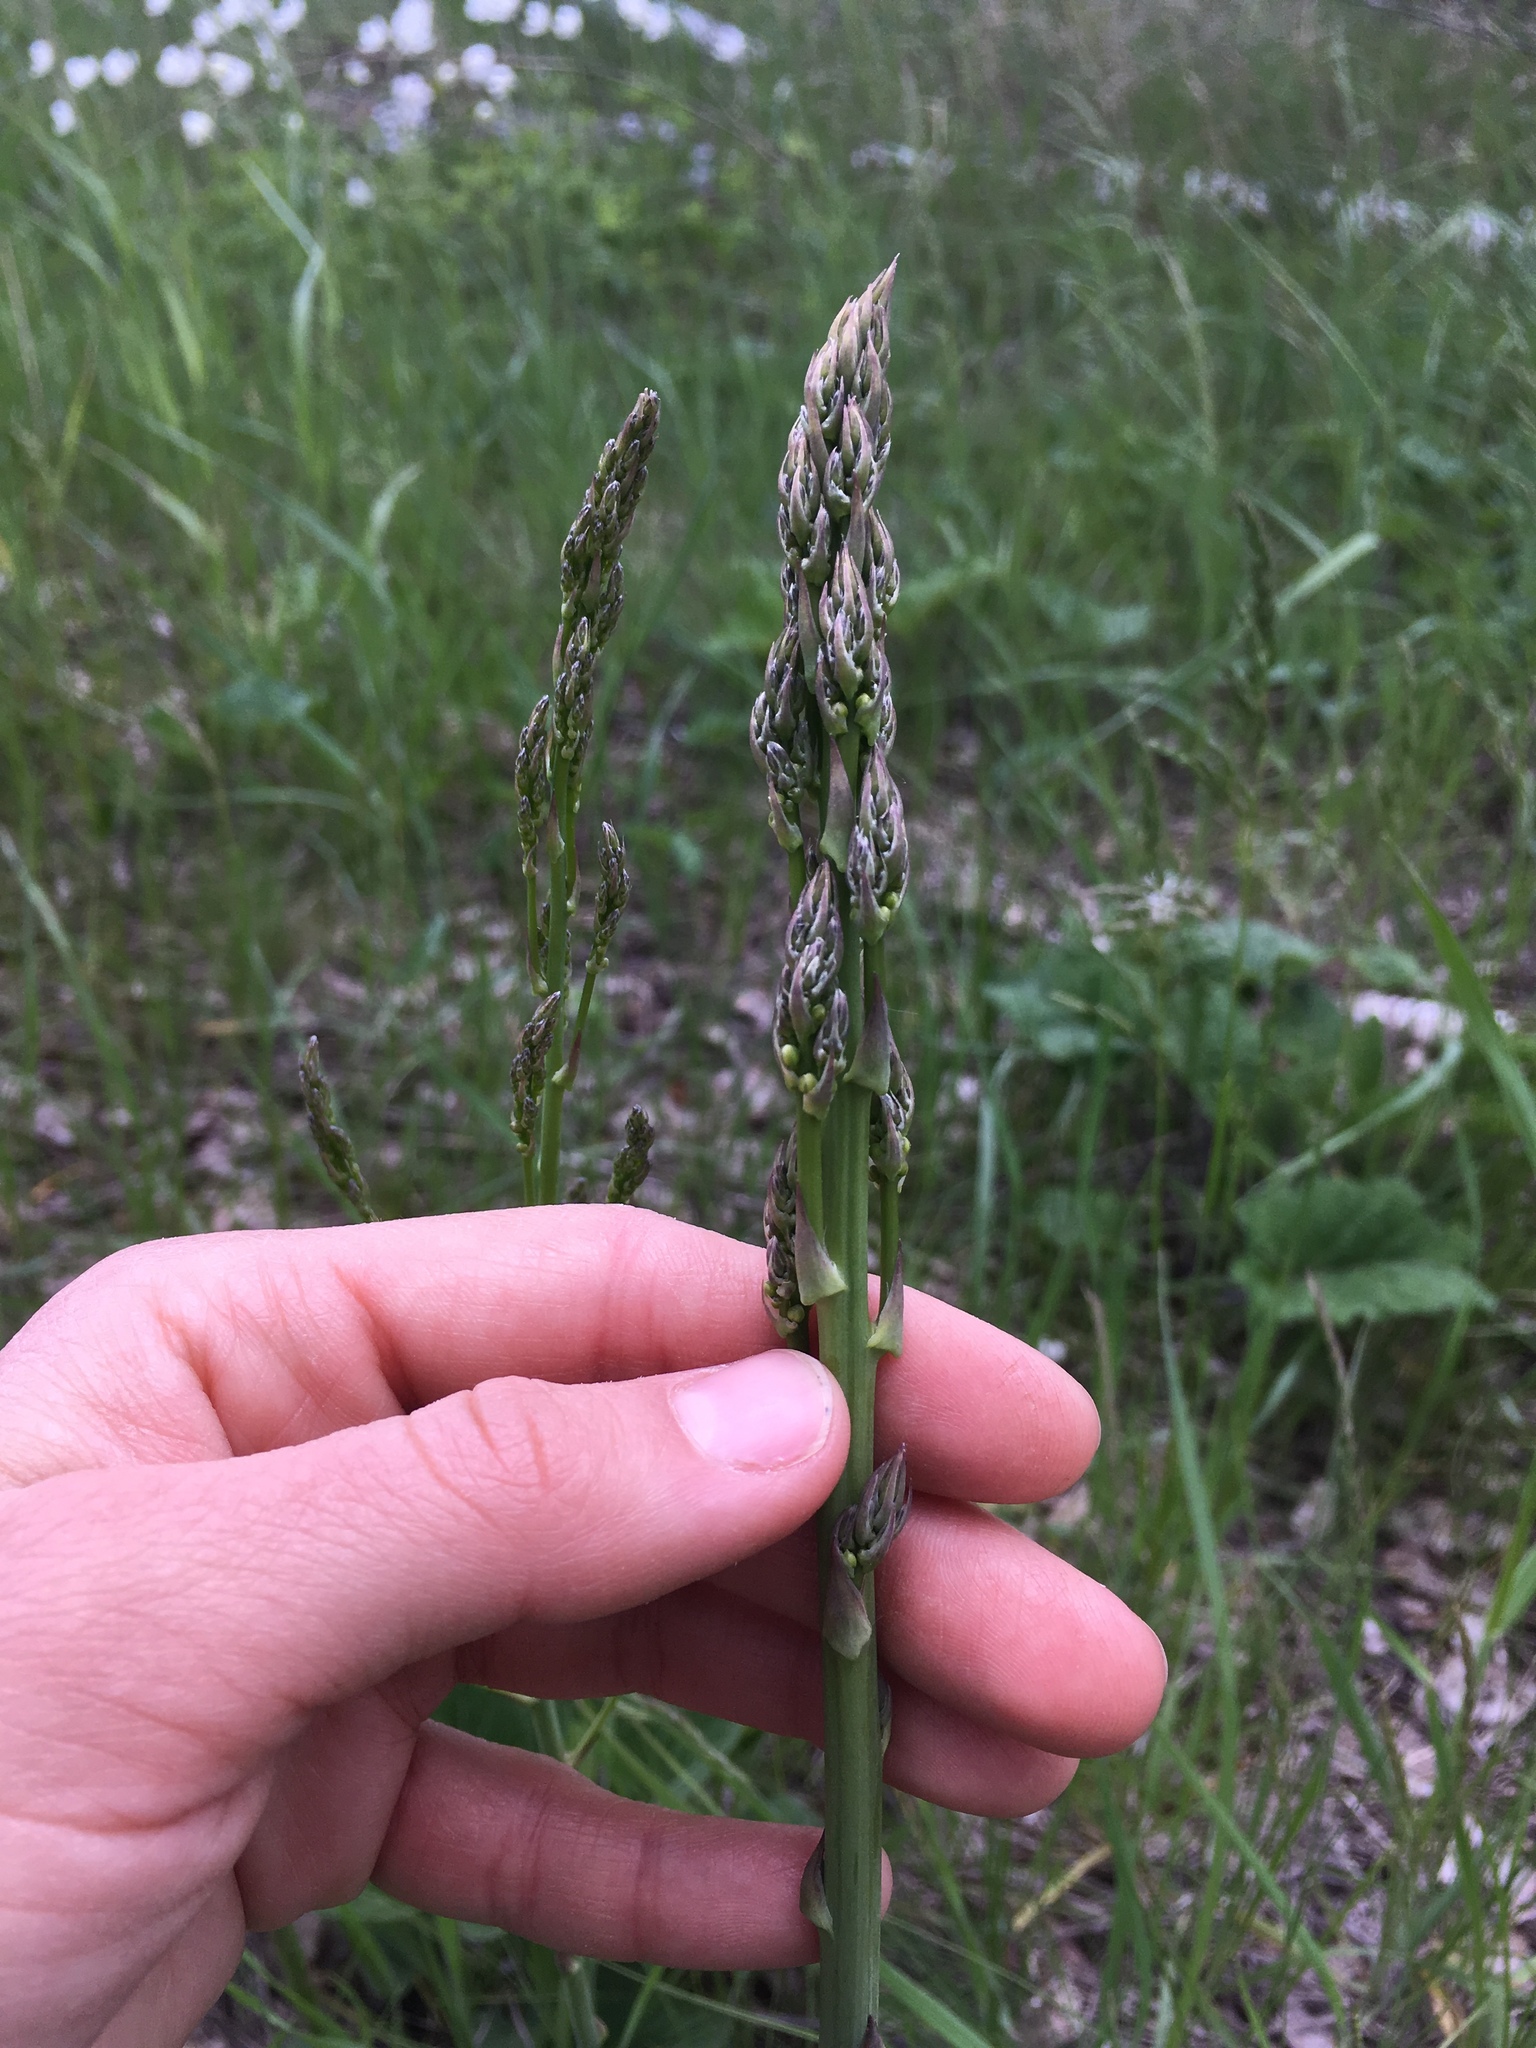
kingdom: Plantae
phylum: Tracheophyta
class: Liliopsida
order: Asparagales
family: Asparagaceae
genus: Asparagus
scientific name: Asparagus officinalis
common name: Garden asparagus
